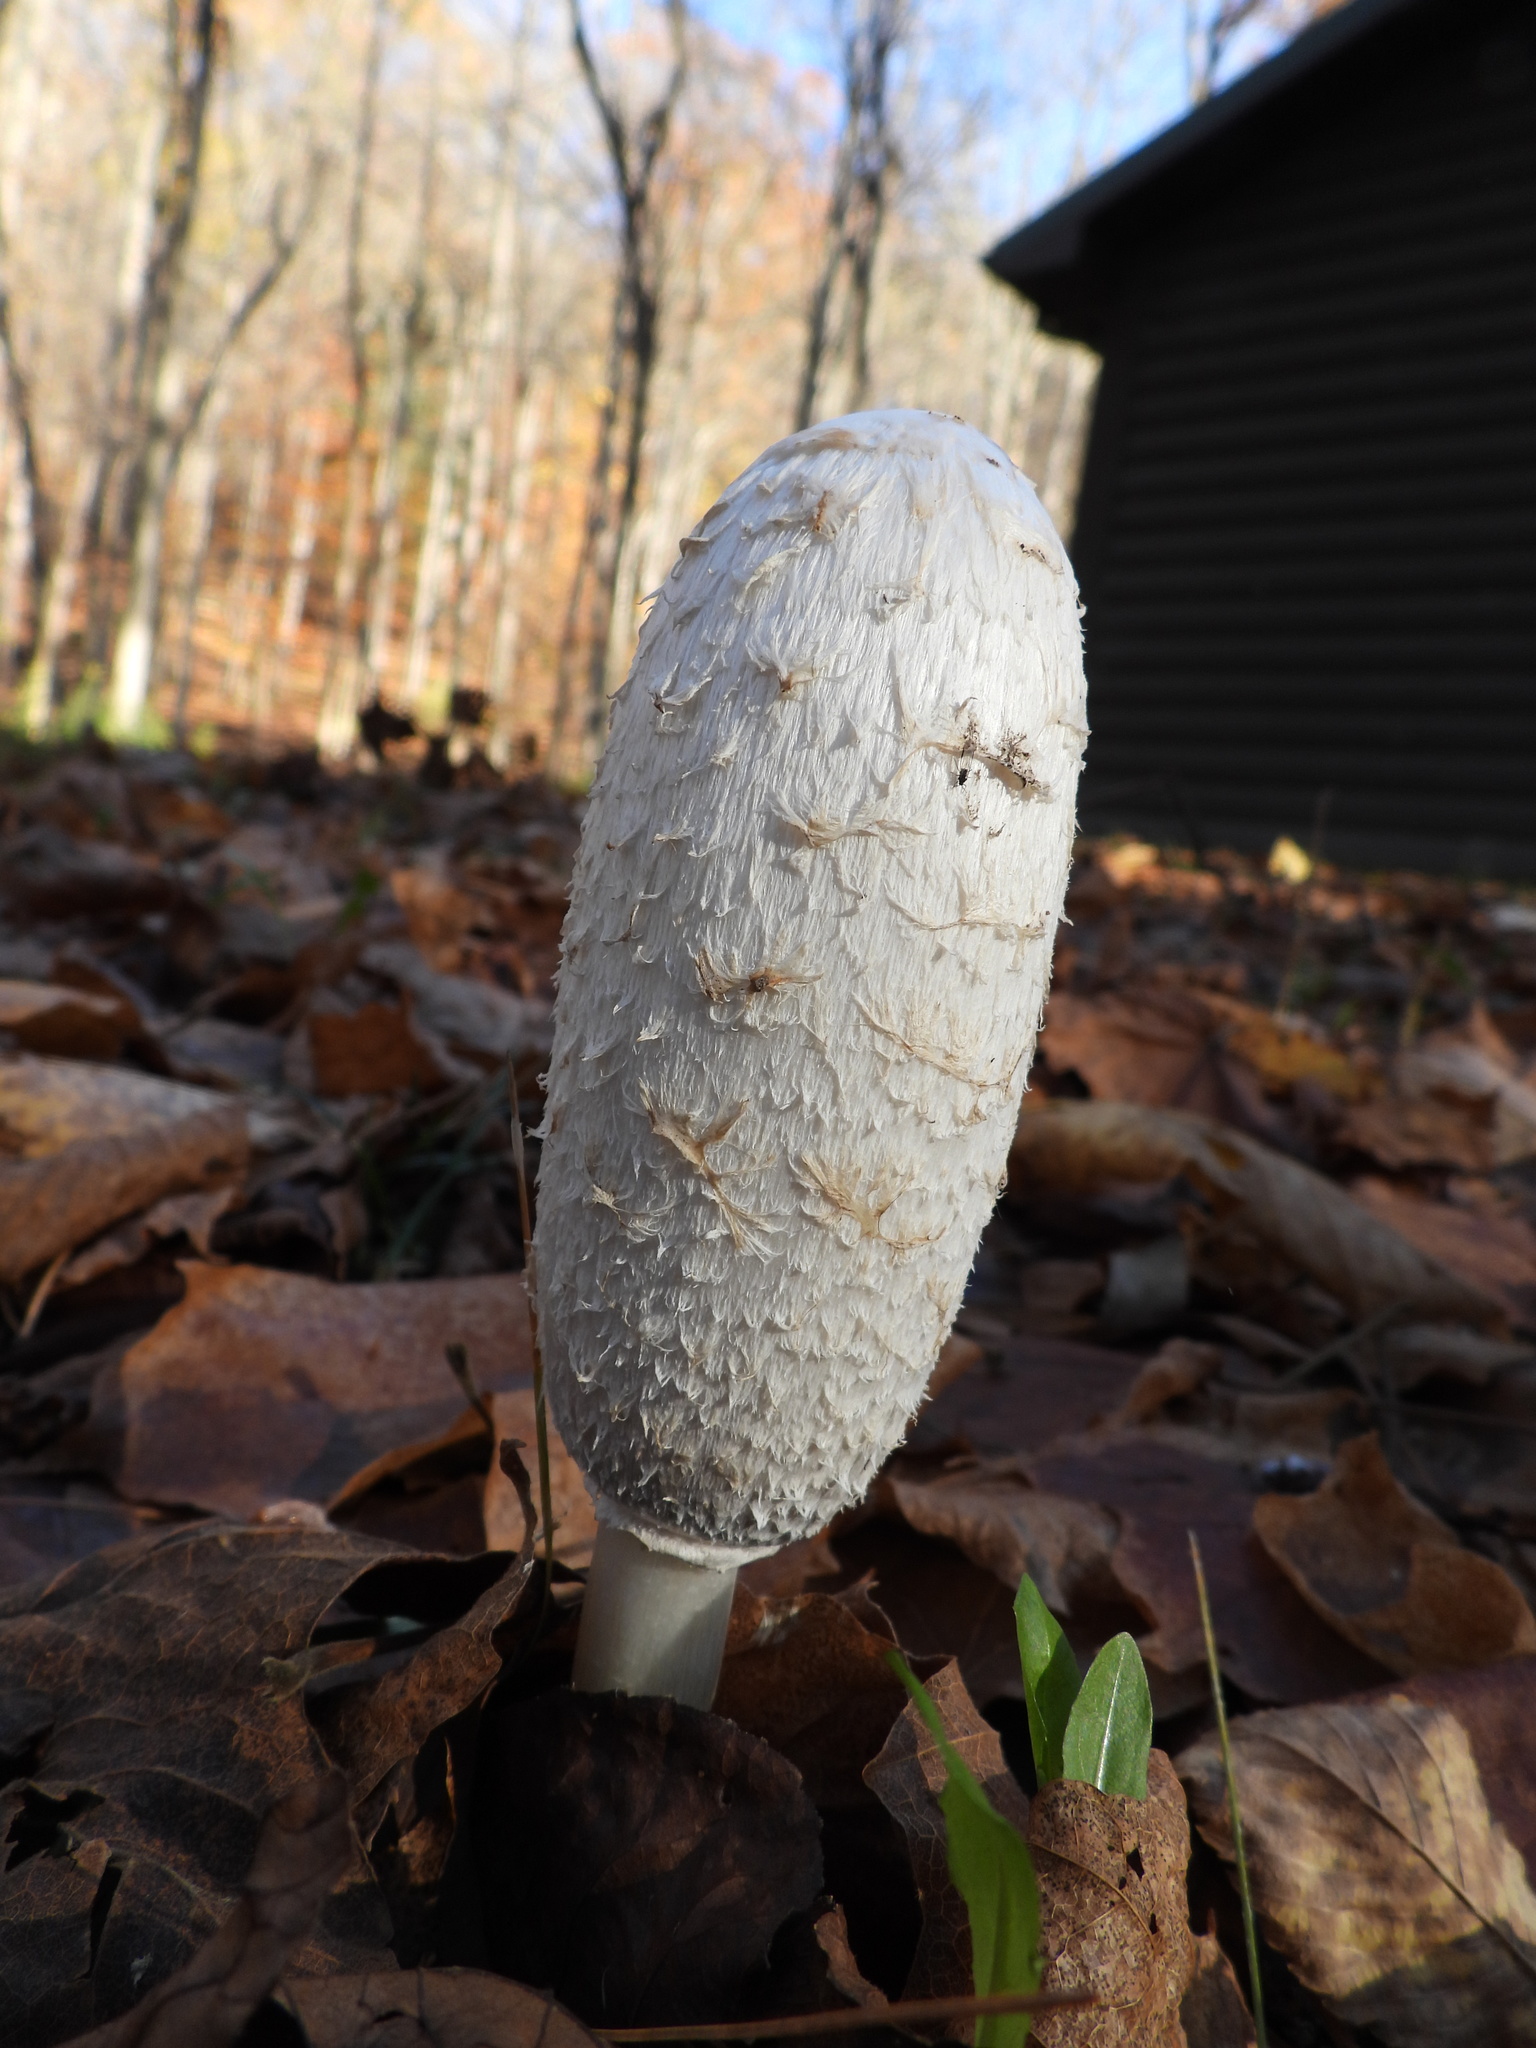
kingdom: Fungi
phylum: Basidiomycota
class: Agaricomycetes
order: Agaricales
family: Agaricaceae
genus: Coprinus
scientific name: Coprinus comatus
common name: Lawyer's wig
